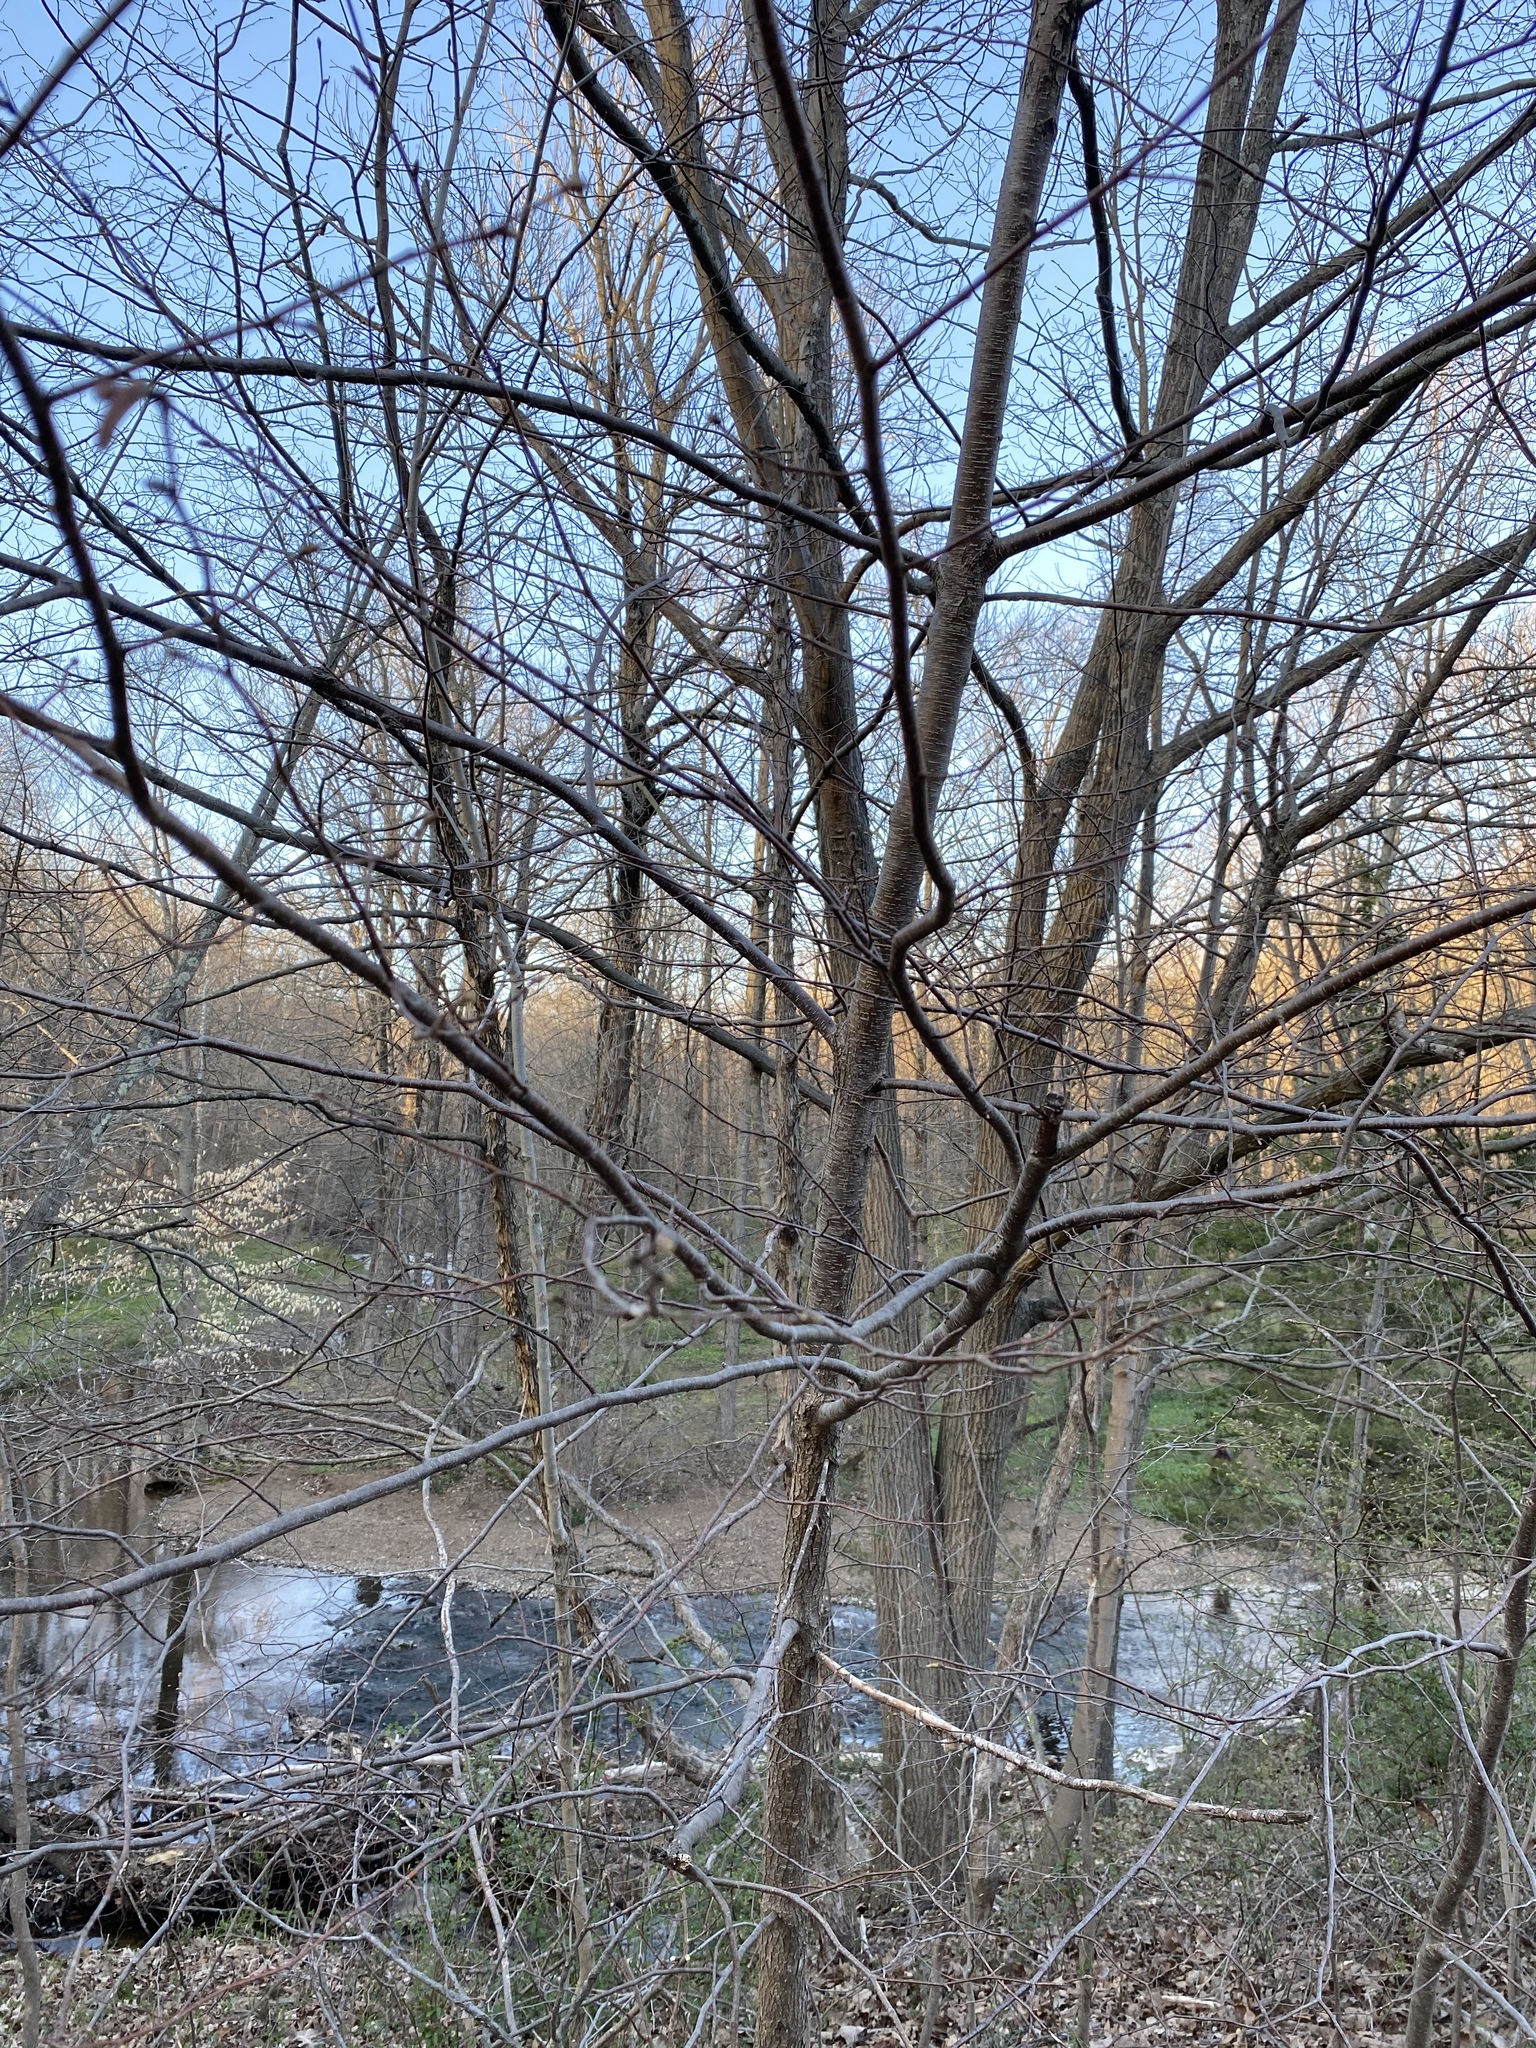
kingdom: Plantae
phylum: Tracheophyta
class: Magnoliopsida
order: Fagales
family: Betulaceae
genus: Betula
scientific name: Betula lenta
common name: Black birch
